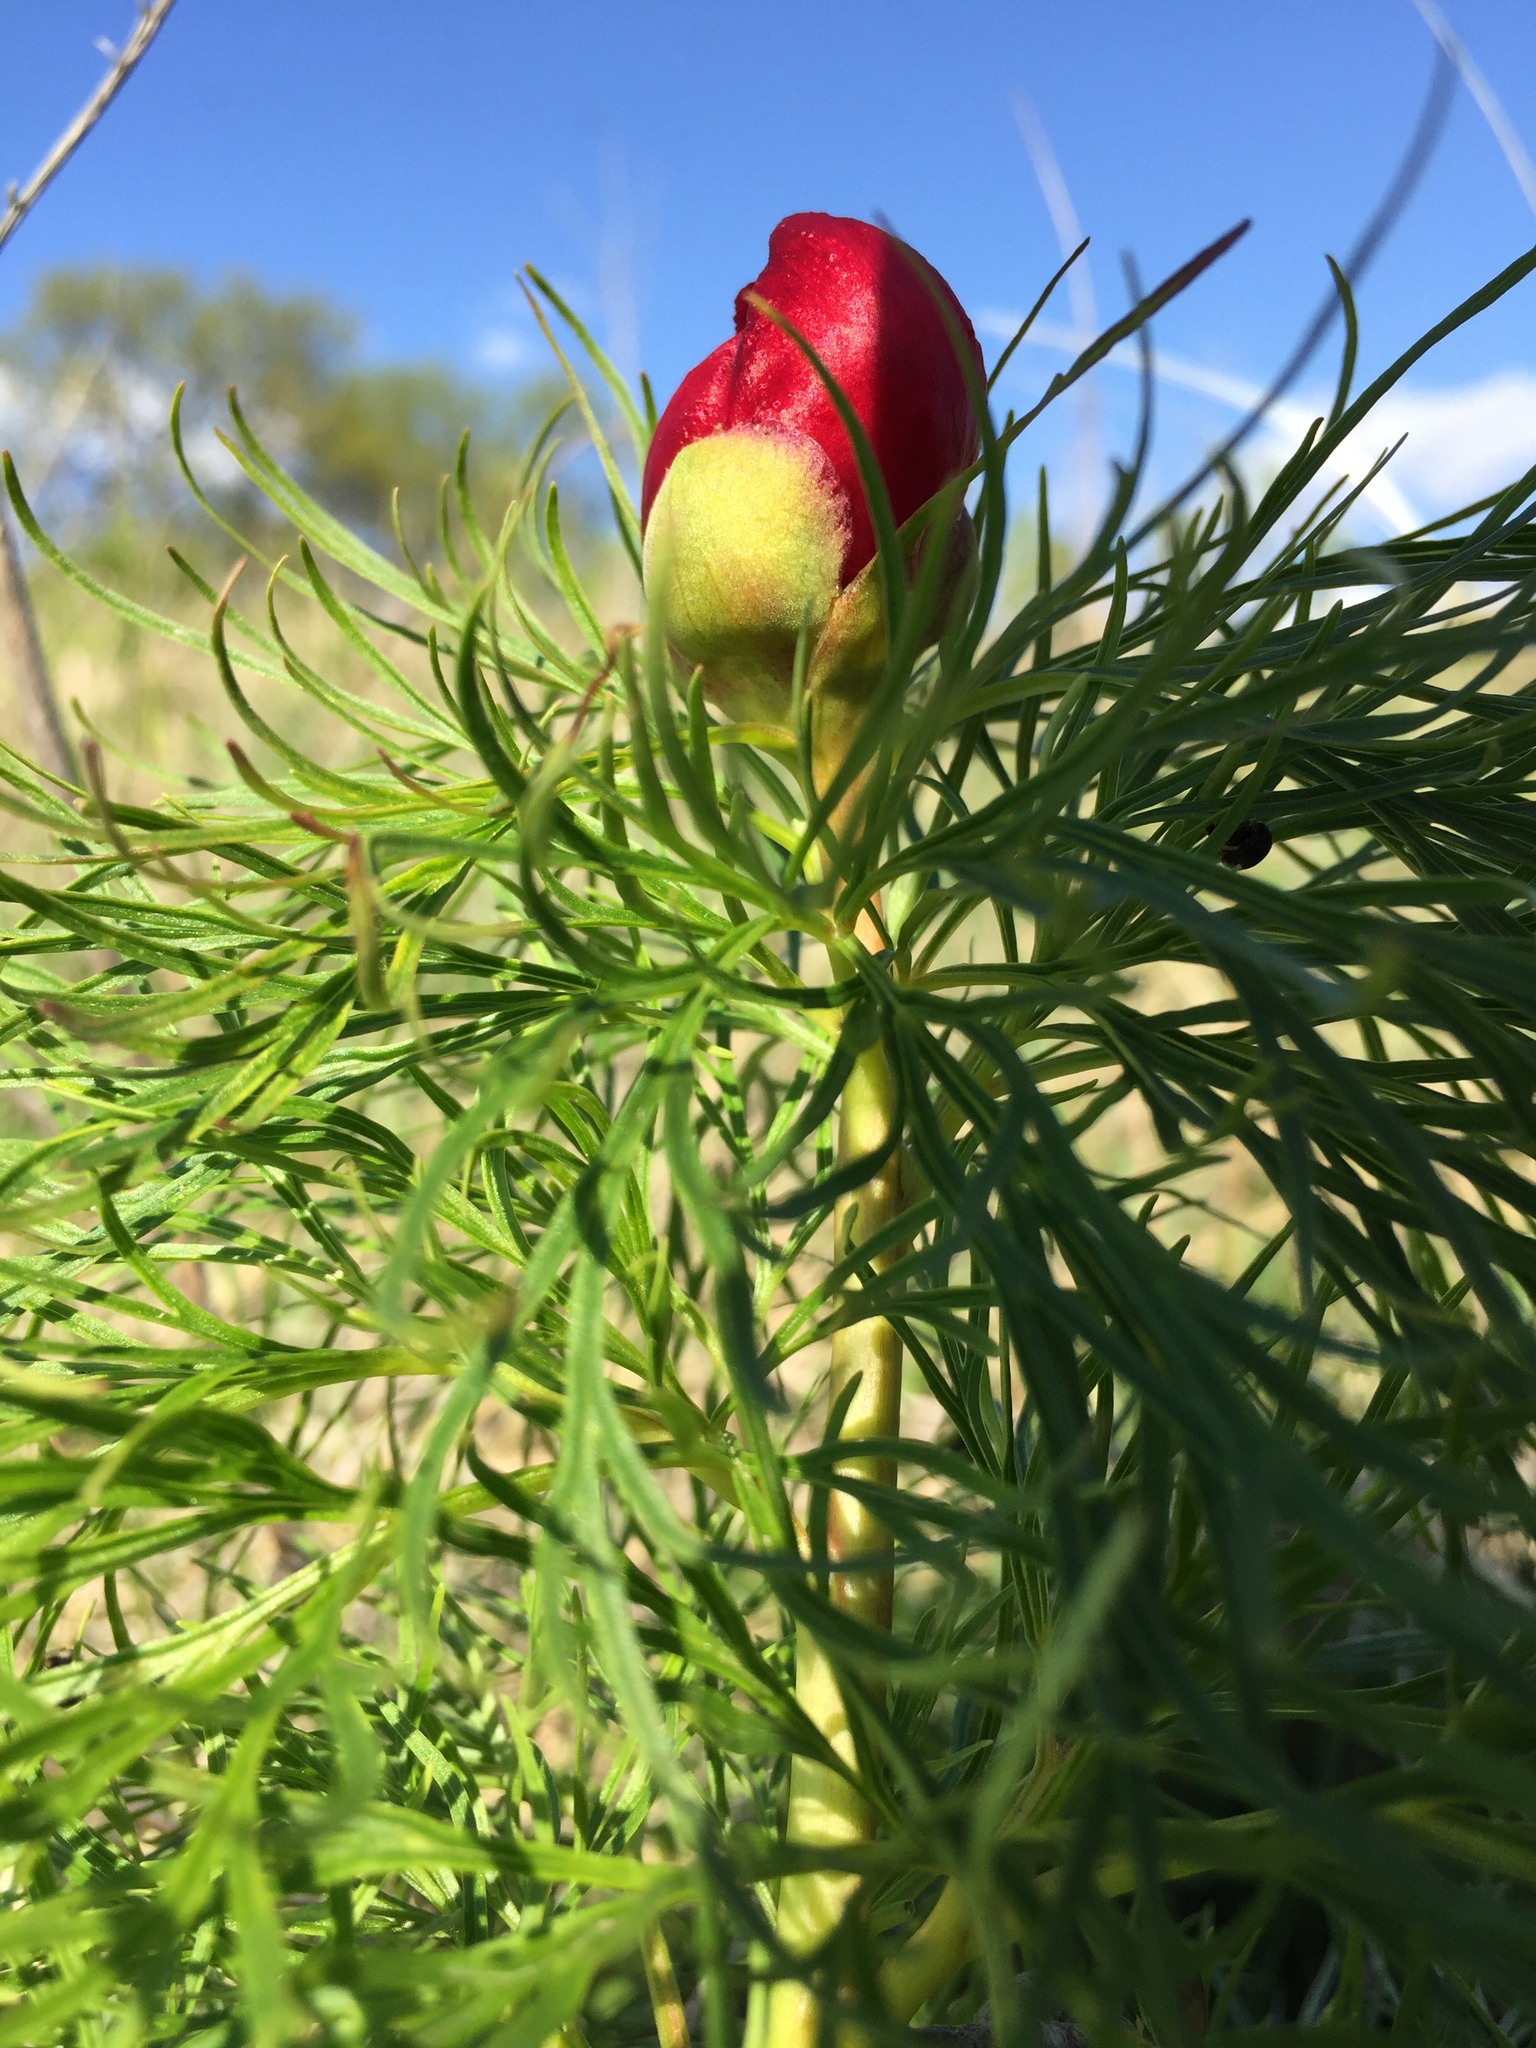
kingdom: Plantae
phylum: Tracheophyta
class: Magnoliopsida
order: Saxifragales
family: Paeoniaceae
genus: Paeonia
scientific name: Paeonia tenuifolia
